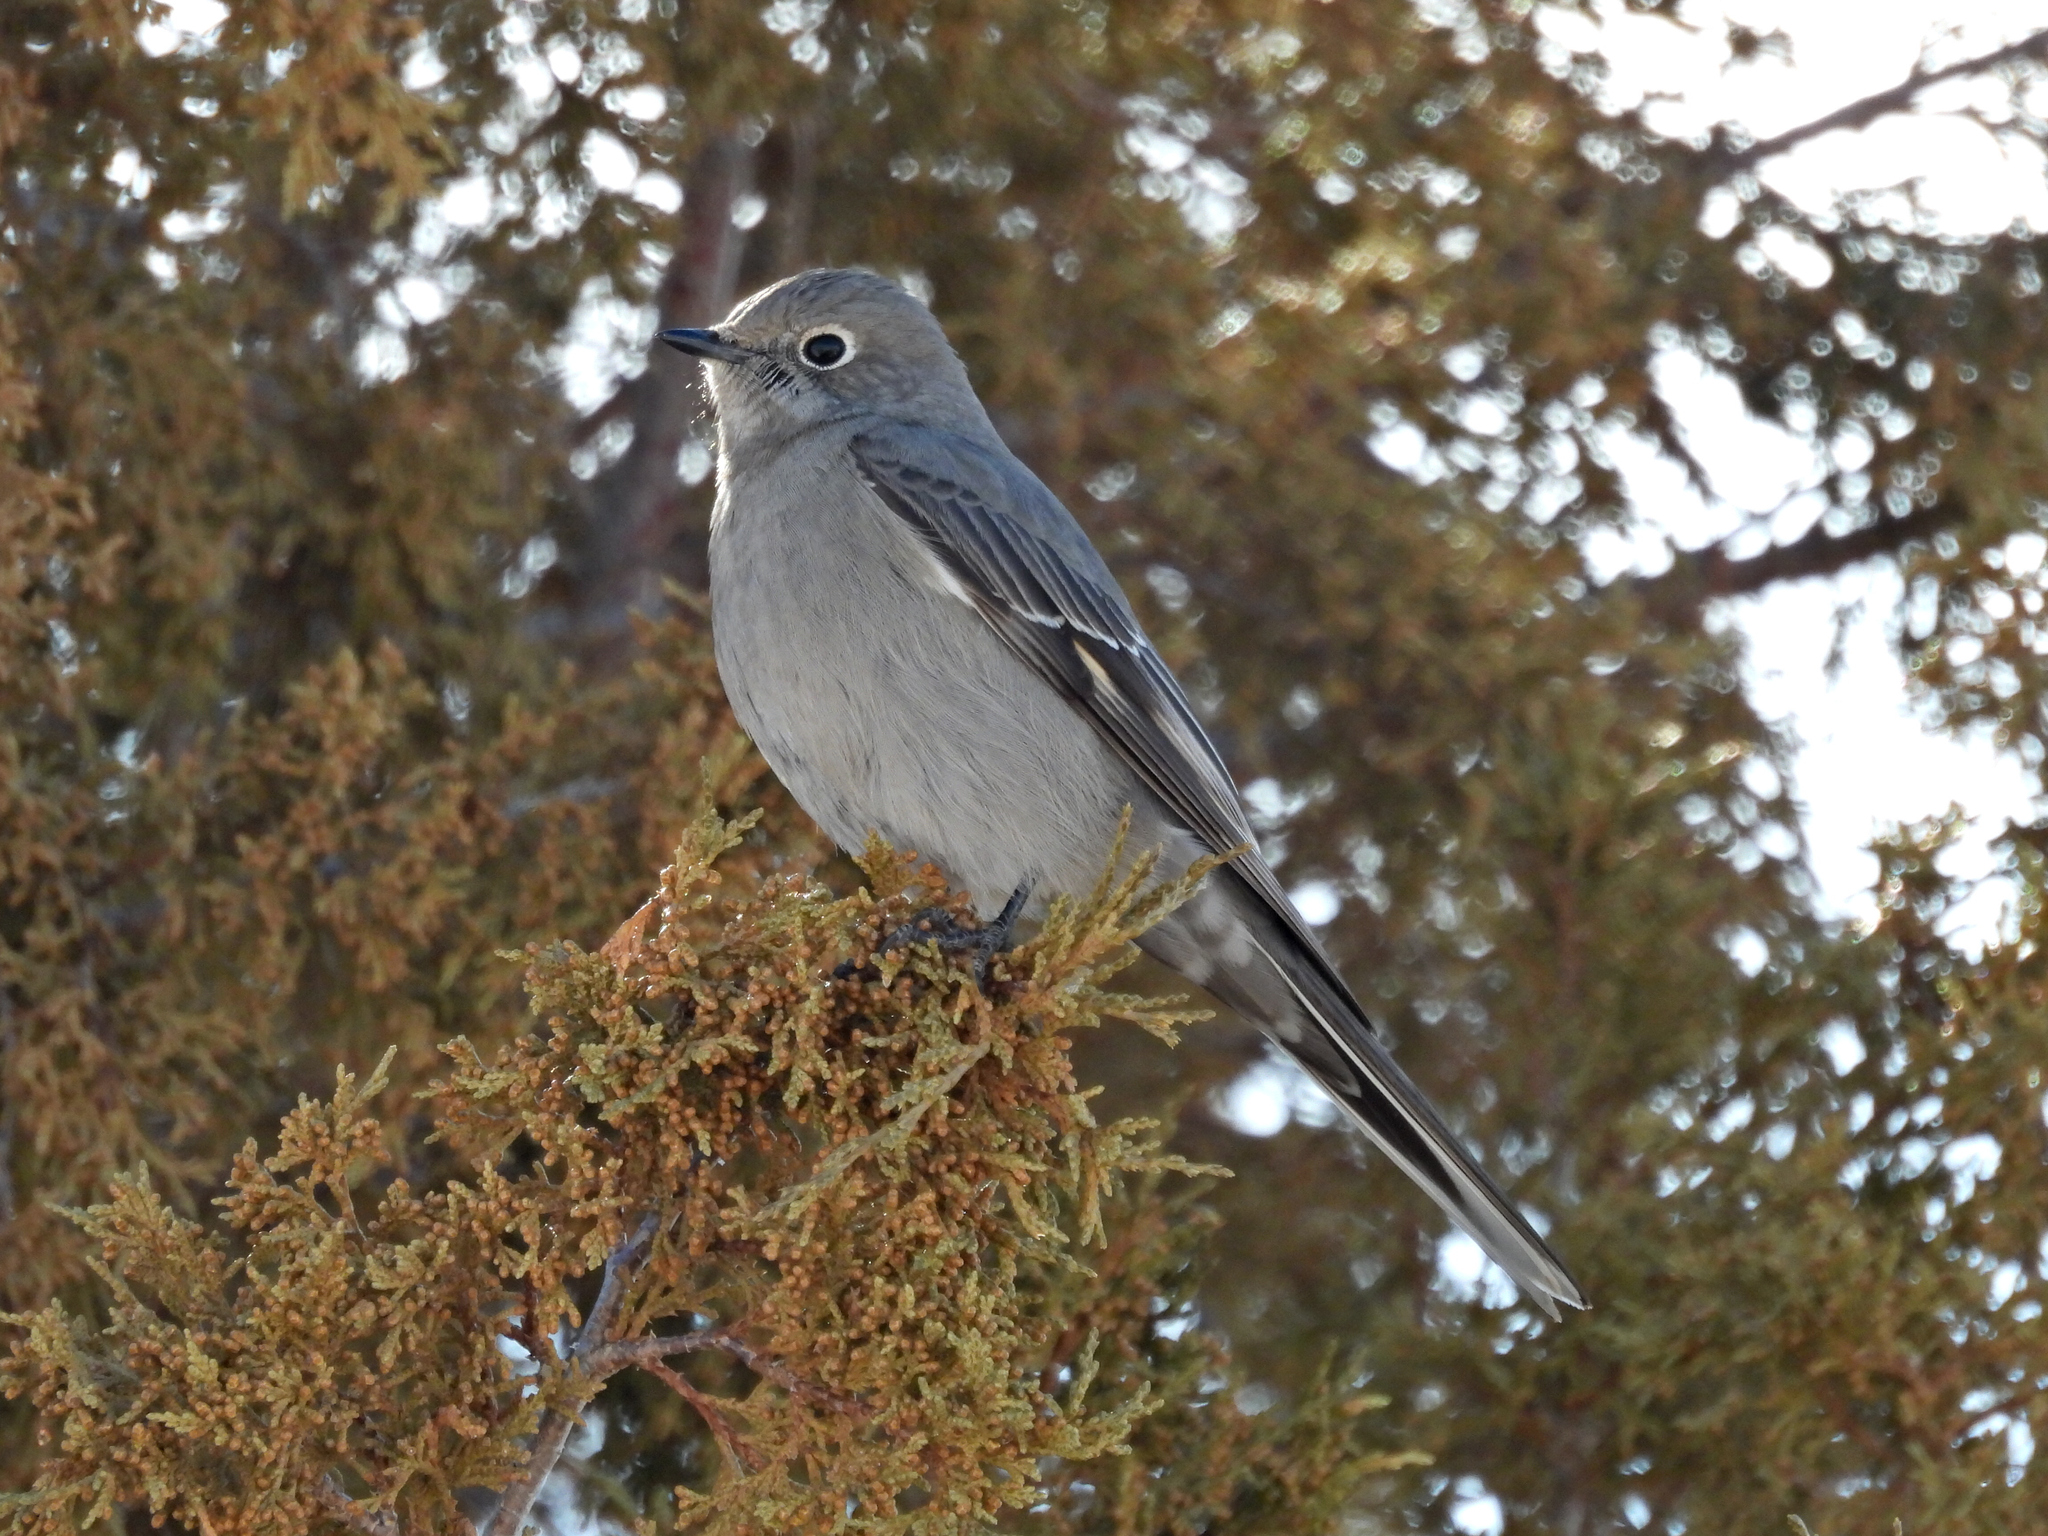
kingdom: Animalia
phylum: Chordata
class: Aves
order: Passeriformes
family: Turdidae
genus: Myadestes
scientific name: Myadestes townsendi
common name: Townsend's solitaire
